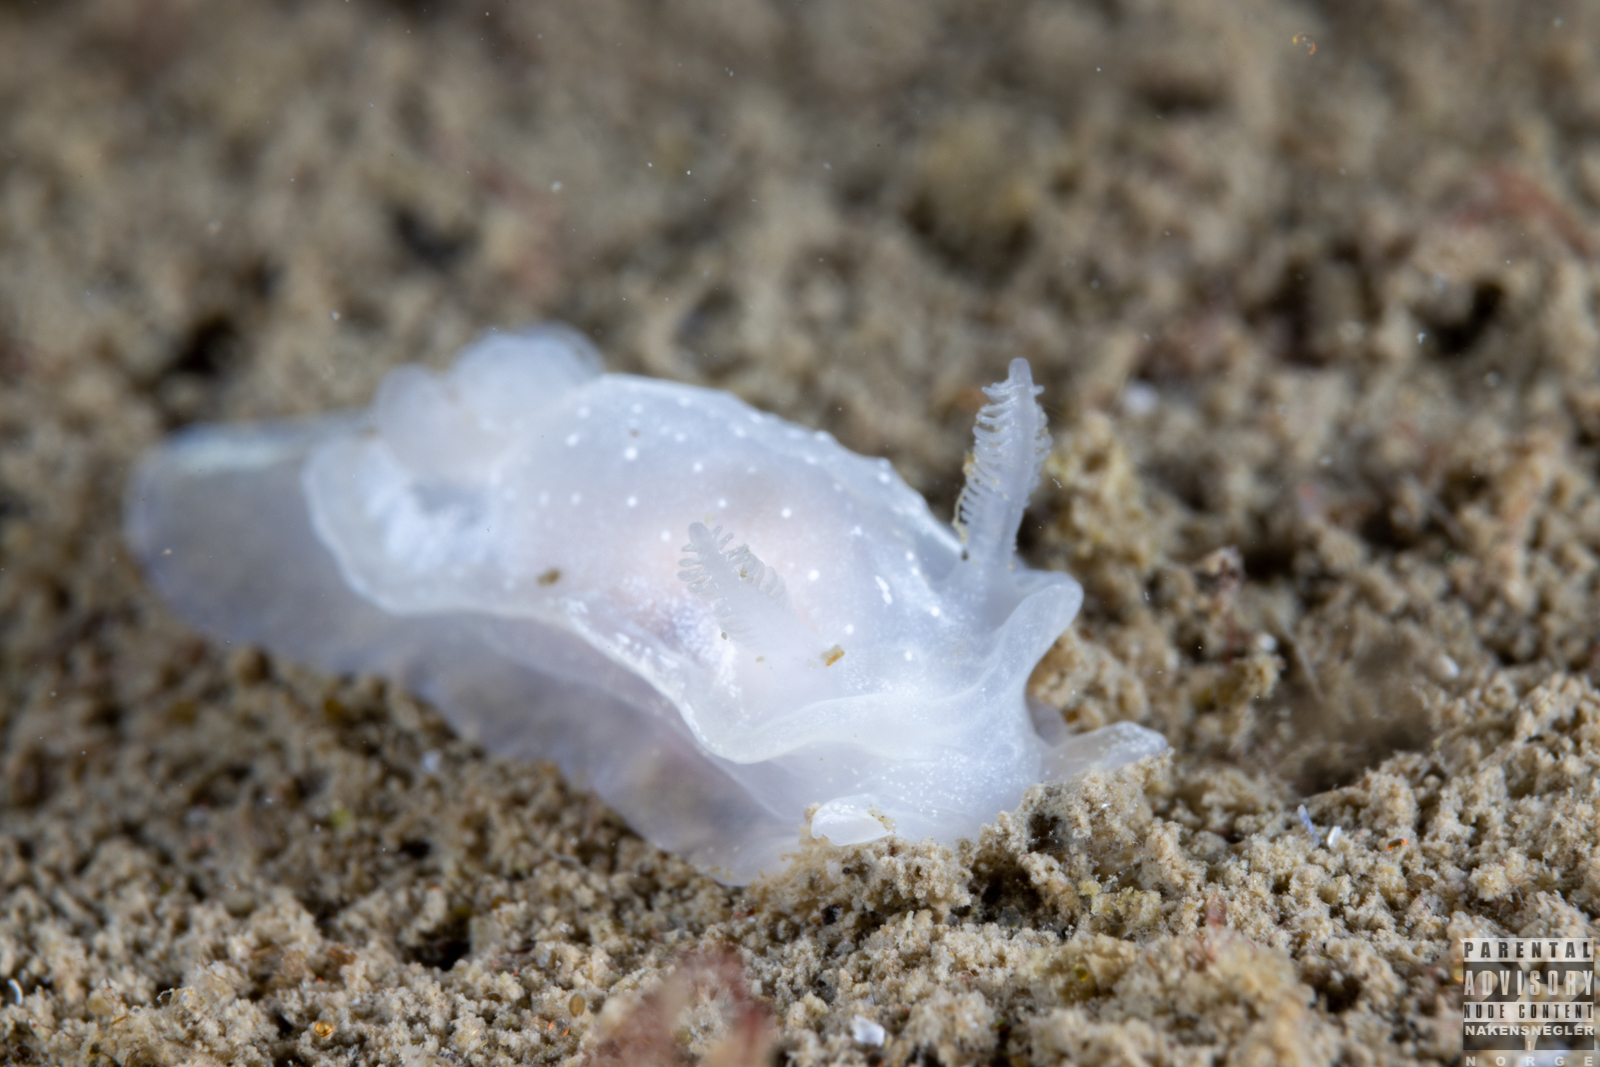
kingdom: Animalia
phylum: Mollusca
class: Gastropoda
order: Nudibranchia
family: Goniodorididae
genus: Okenia
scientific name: Okenia
